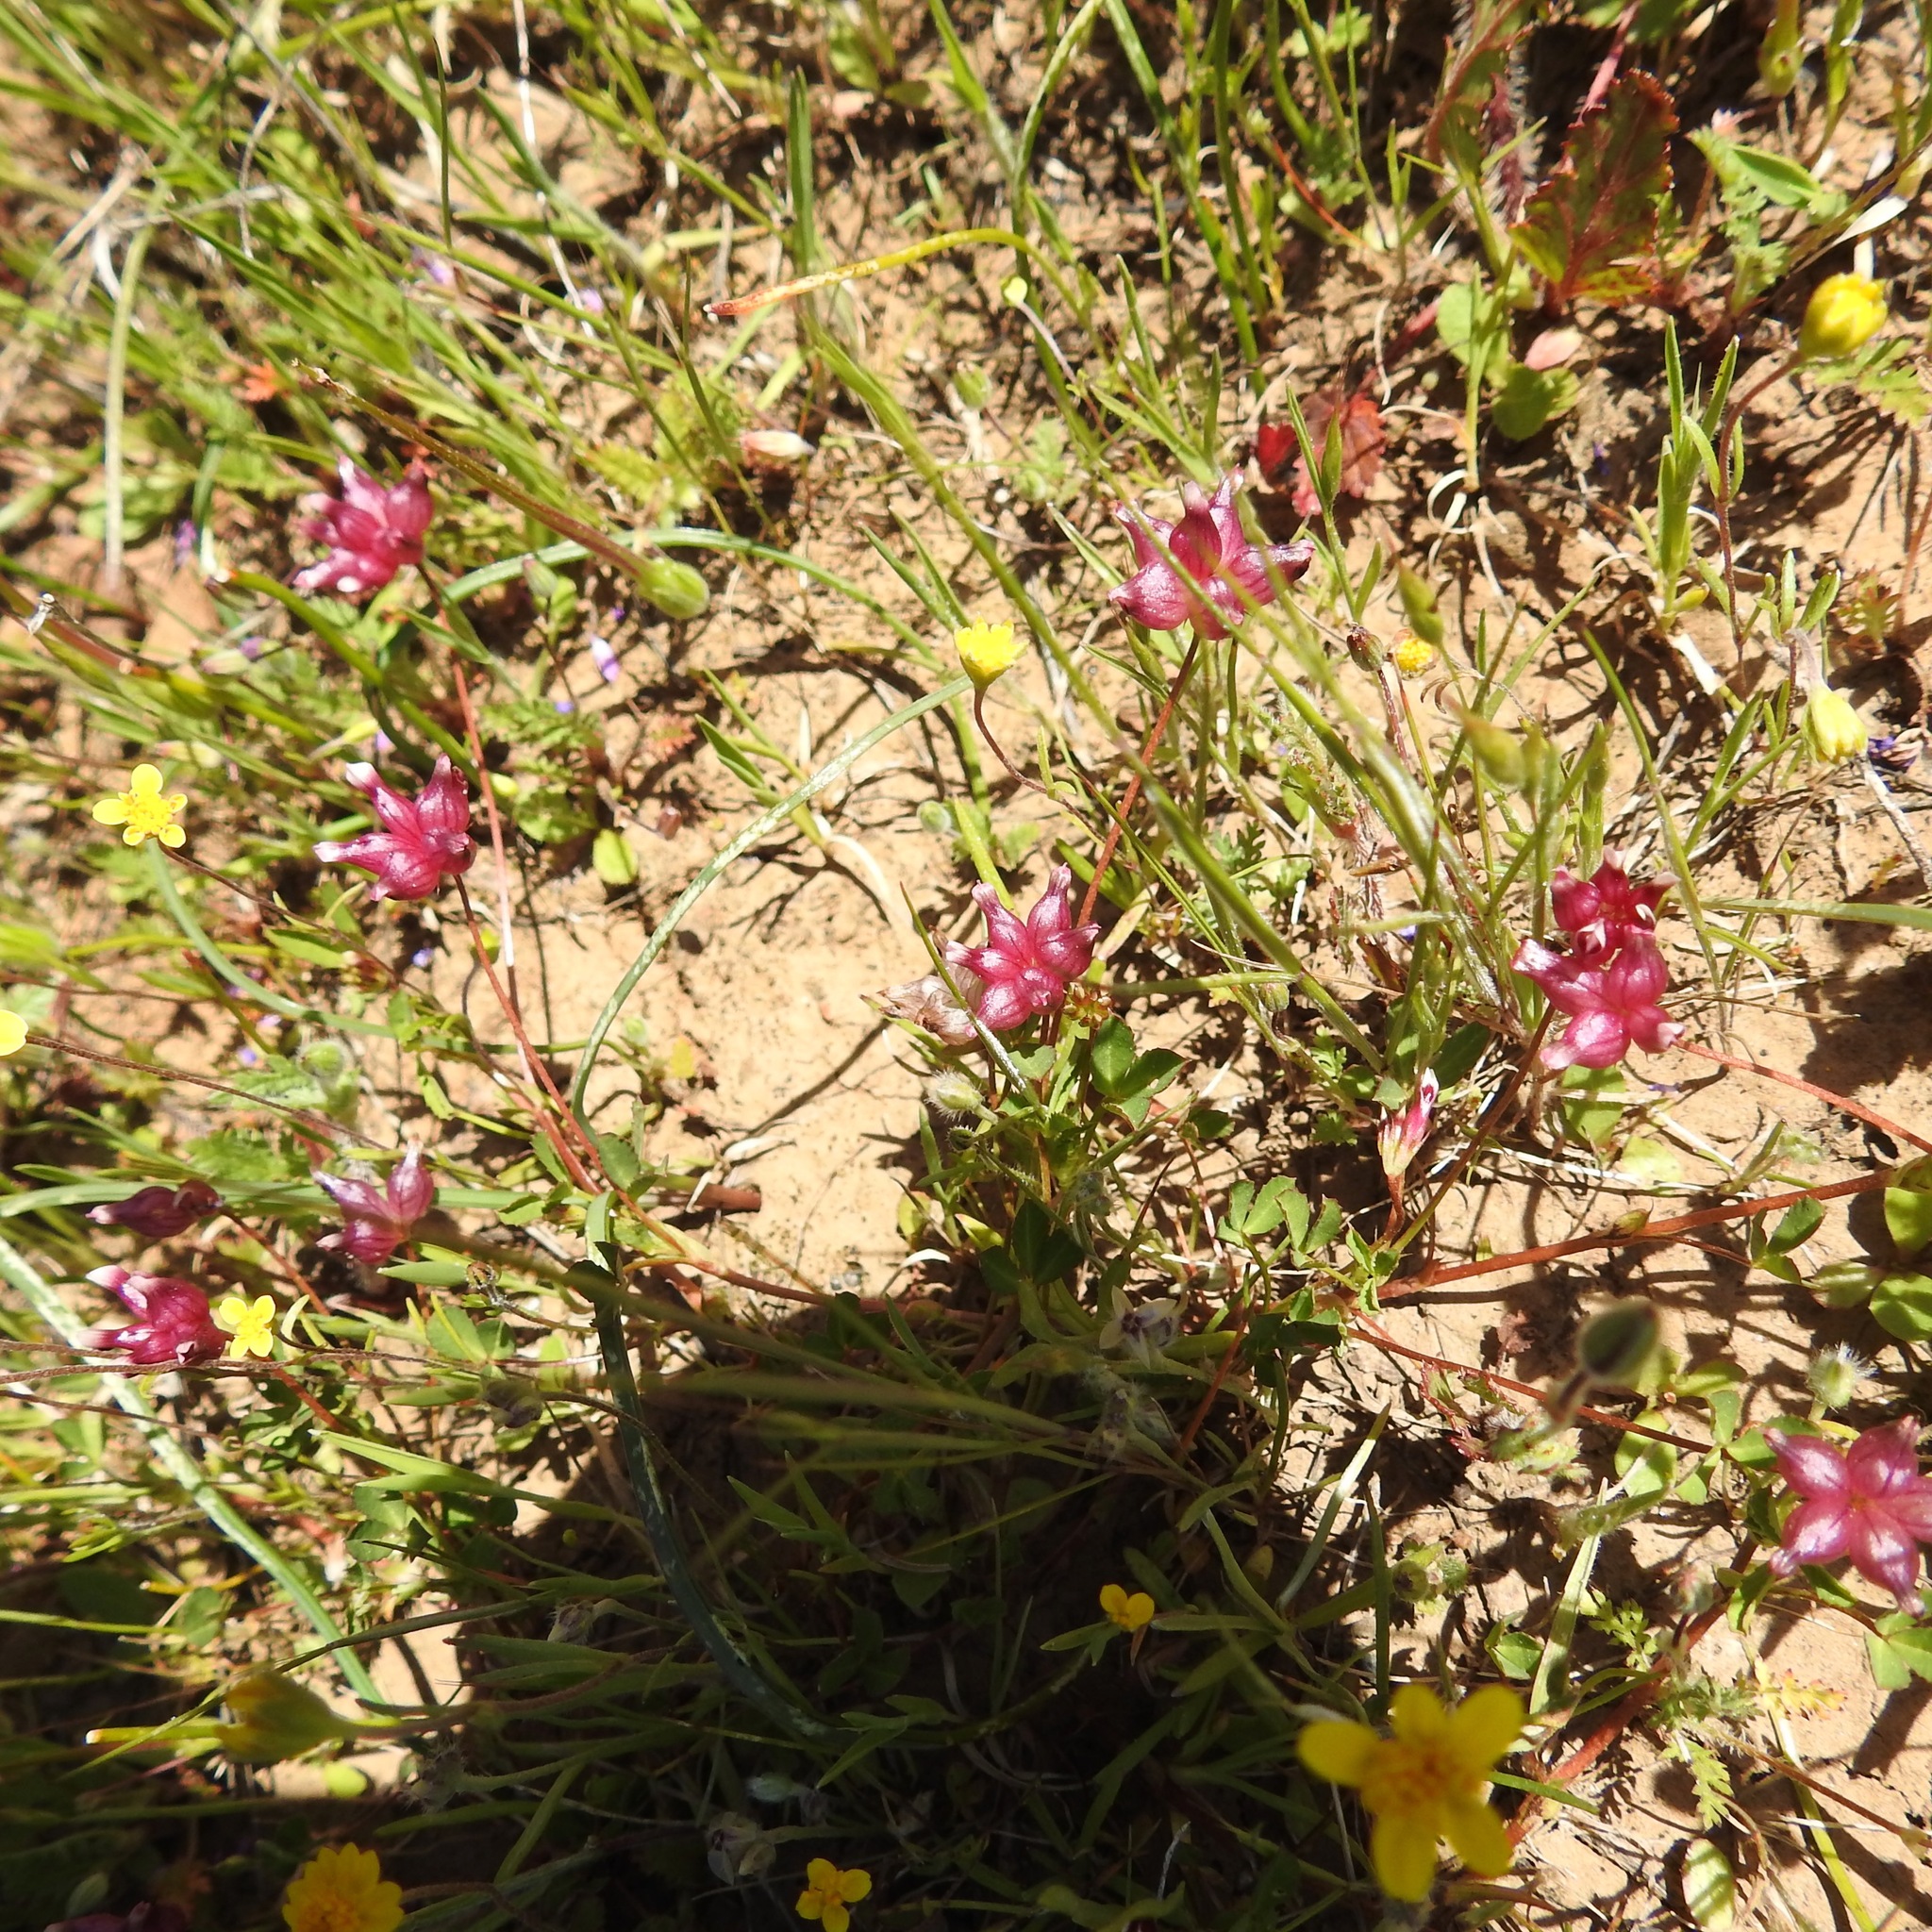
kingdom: Plantae
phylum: Tracheophyta
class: Magnoliopsida
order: Fabales
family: Fabaceae
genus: Trifolium
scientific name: Trifolium depauperatum
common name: Poverty clover
